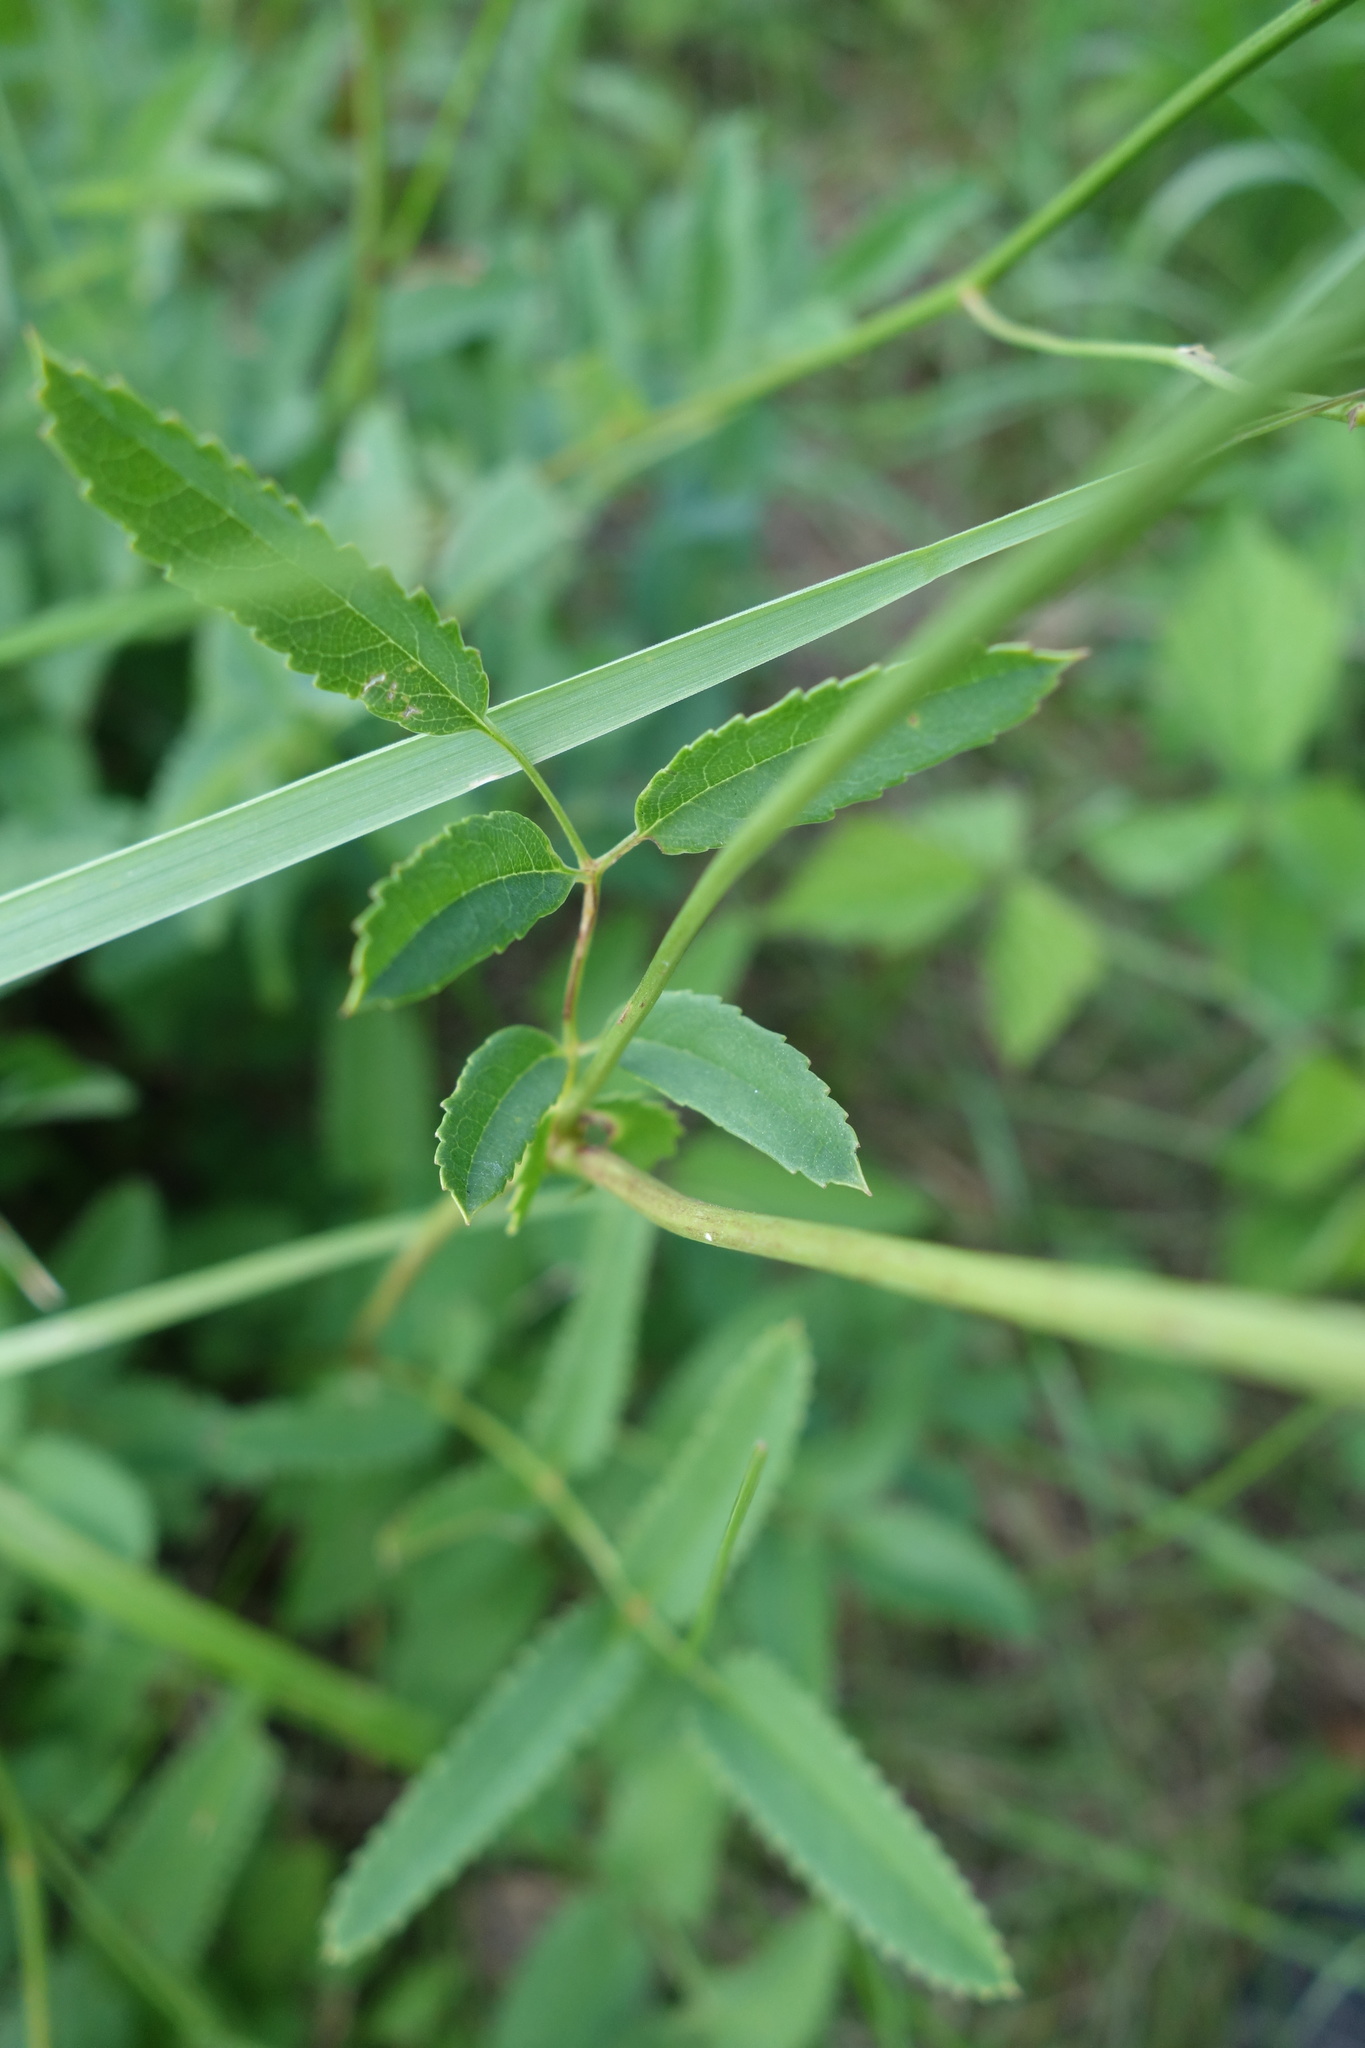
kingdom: Plantae
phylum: Tracheophyta
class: Magnoliopsida
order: Rosales
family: Rosaceae
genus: Sanguisorba
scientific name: Sanguisorba officinalis
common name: Great burnet
